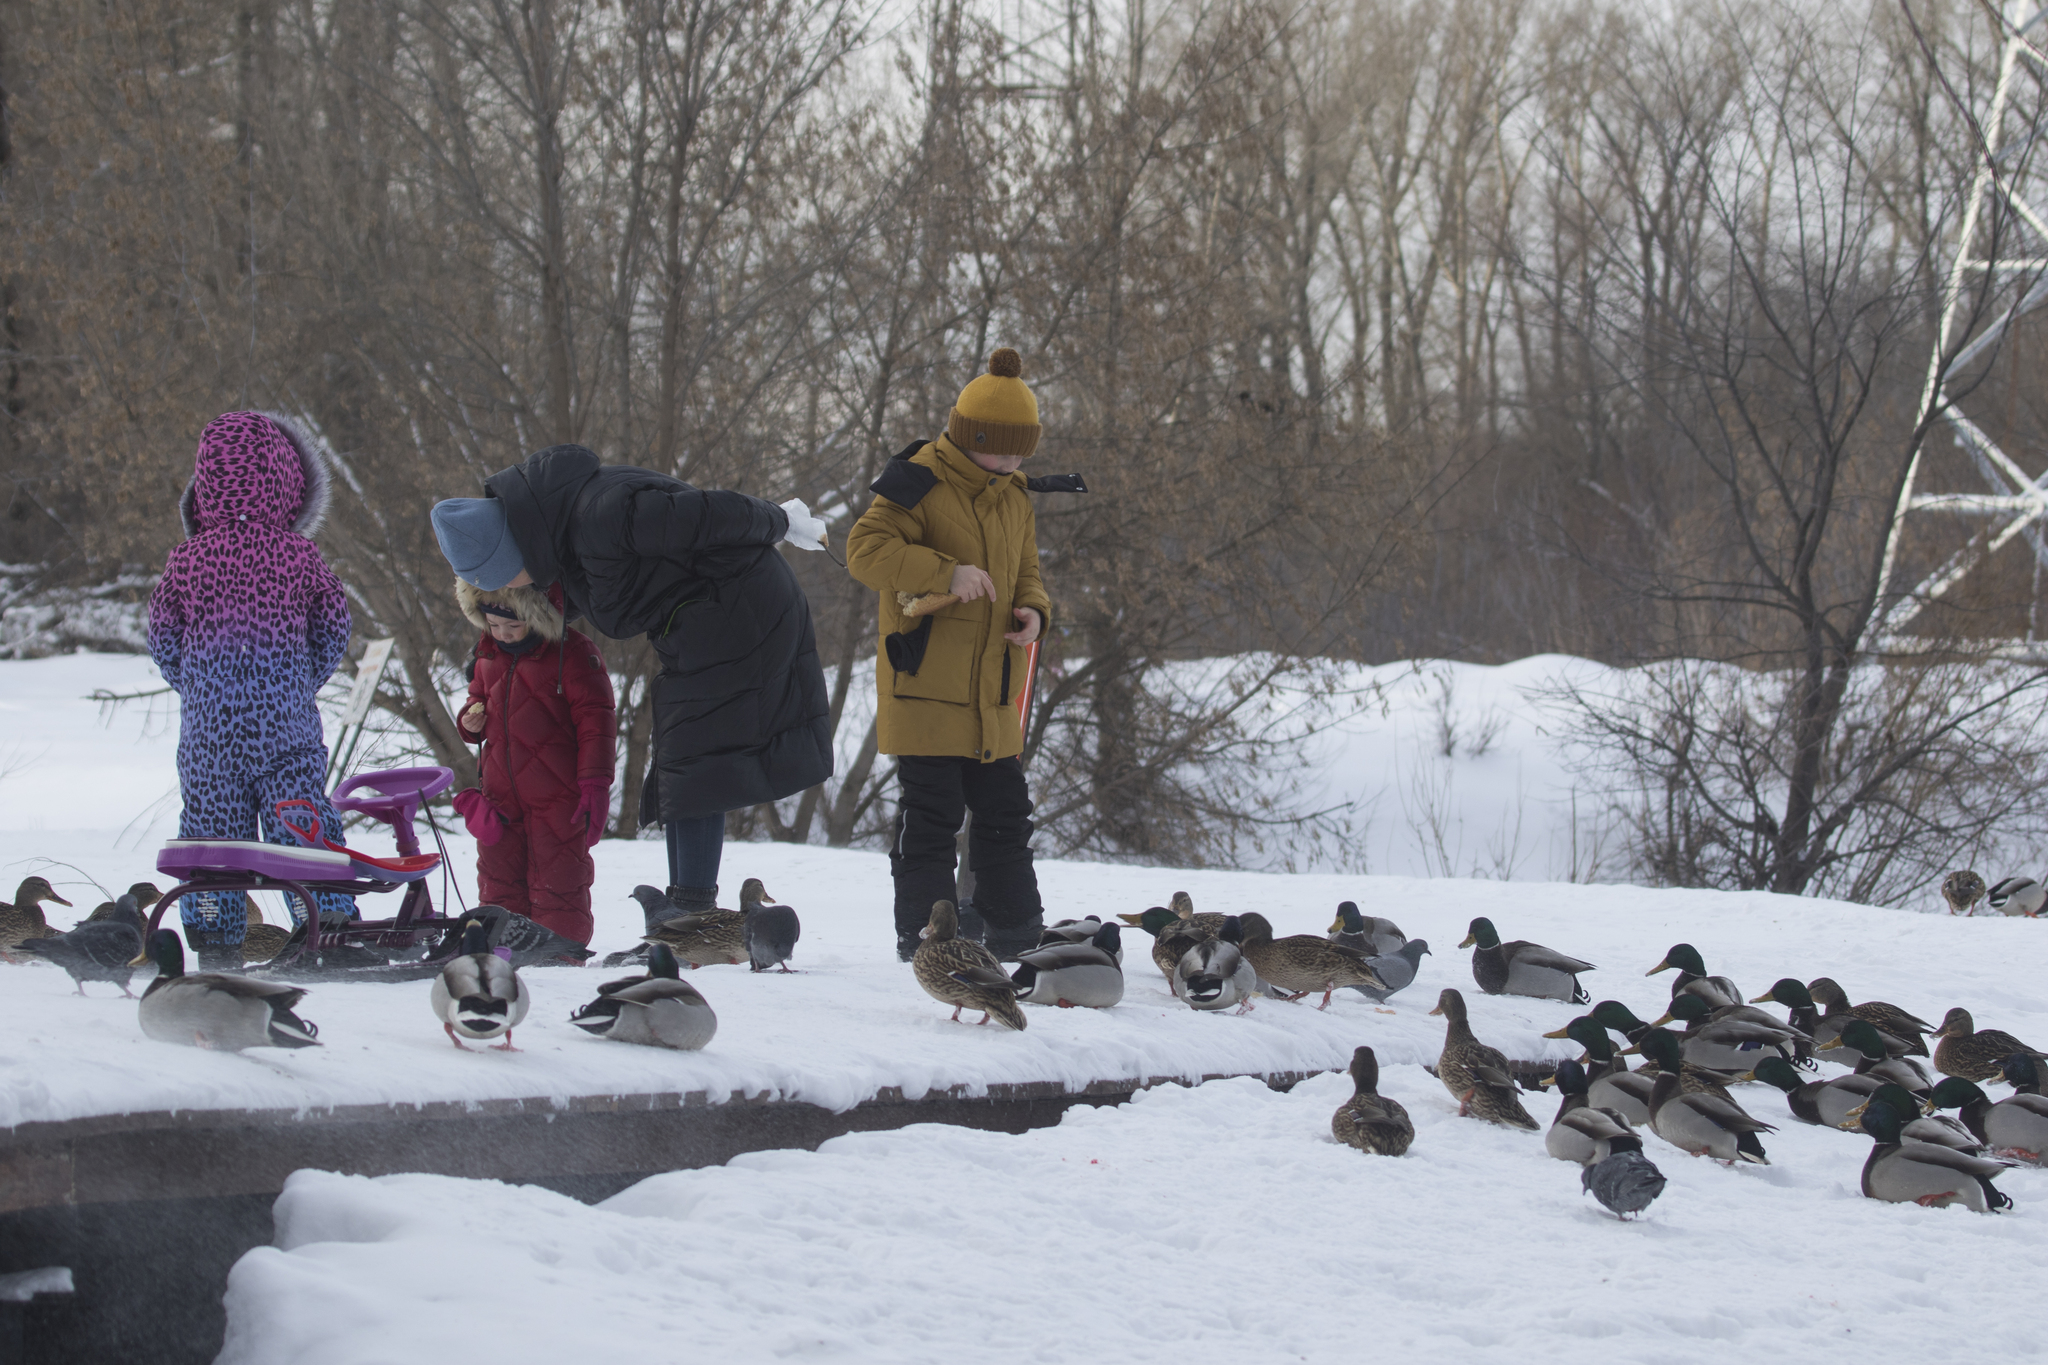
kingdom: Animalia
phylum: Chordata
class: Aves
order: Anseriformes
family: Anatidae
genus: Anas
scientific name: Anas platyrhynchos
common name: Mallard
